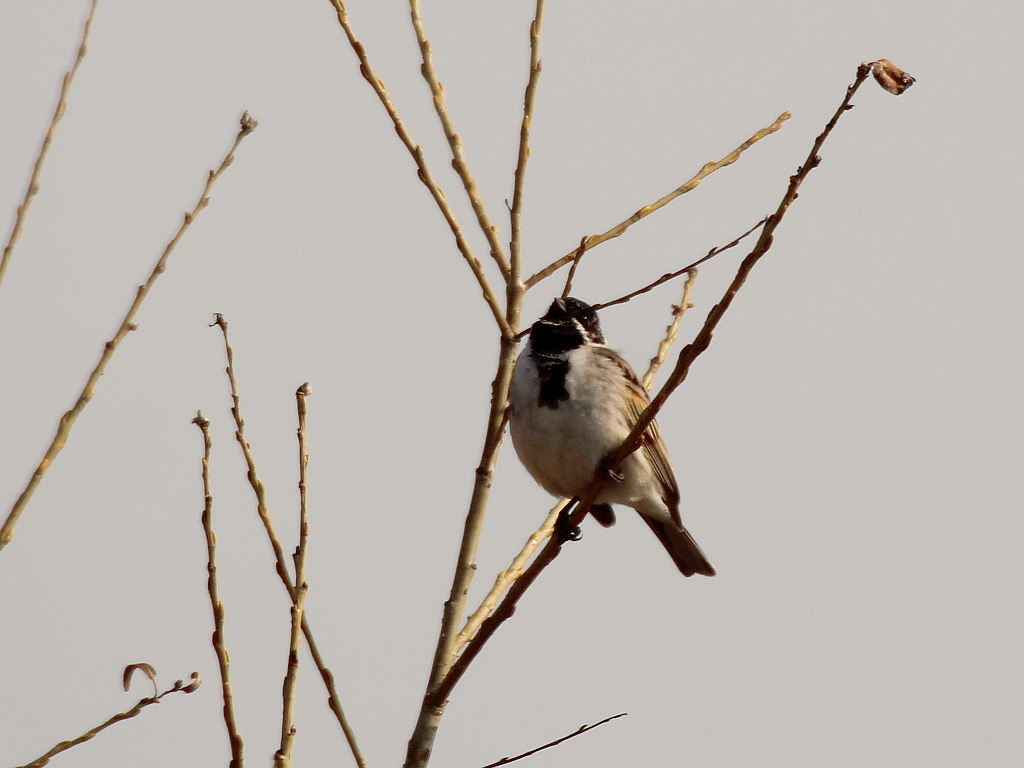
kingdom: Animalia
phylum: Chordata
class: Aves
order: Passeriformes
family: Emberizidae
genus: Emberiza
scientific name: Emberiza schoeniclus
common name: Reed bunting
